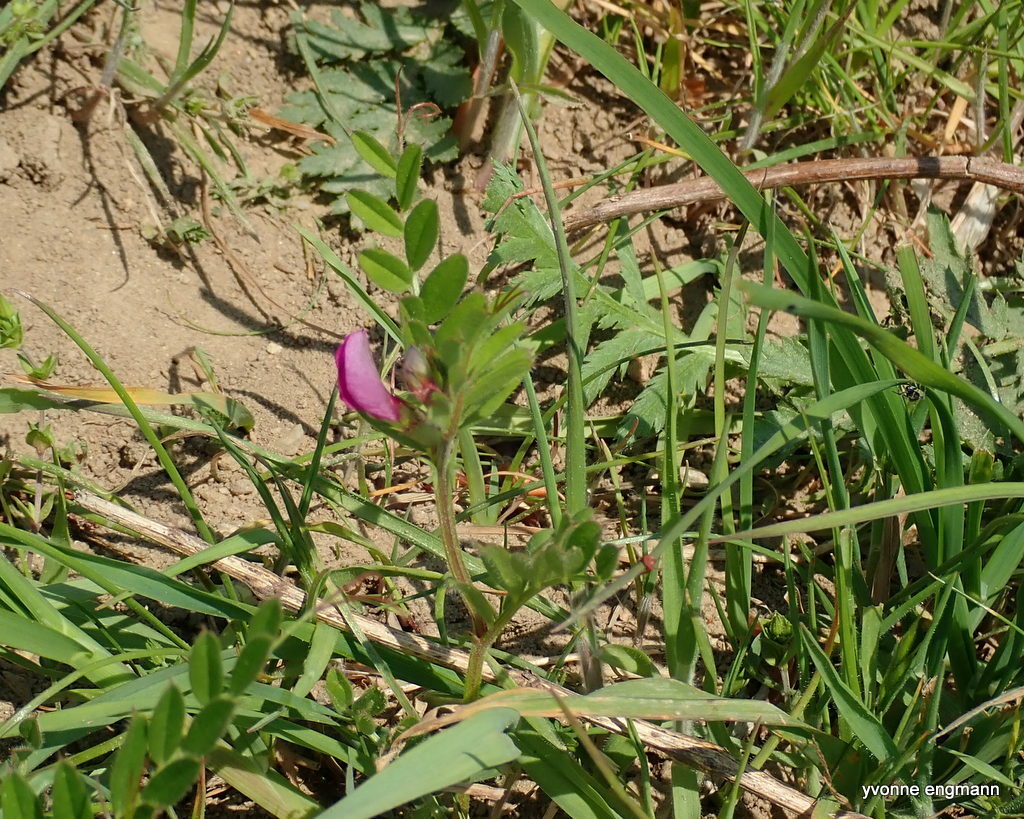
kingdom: Plantae
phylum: Tracheophyta
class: Magnoliopsida
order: Fabales
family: Fabaceae
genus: Vicia
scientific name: Vicia sativa
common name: Garden vetch
